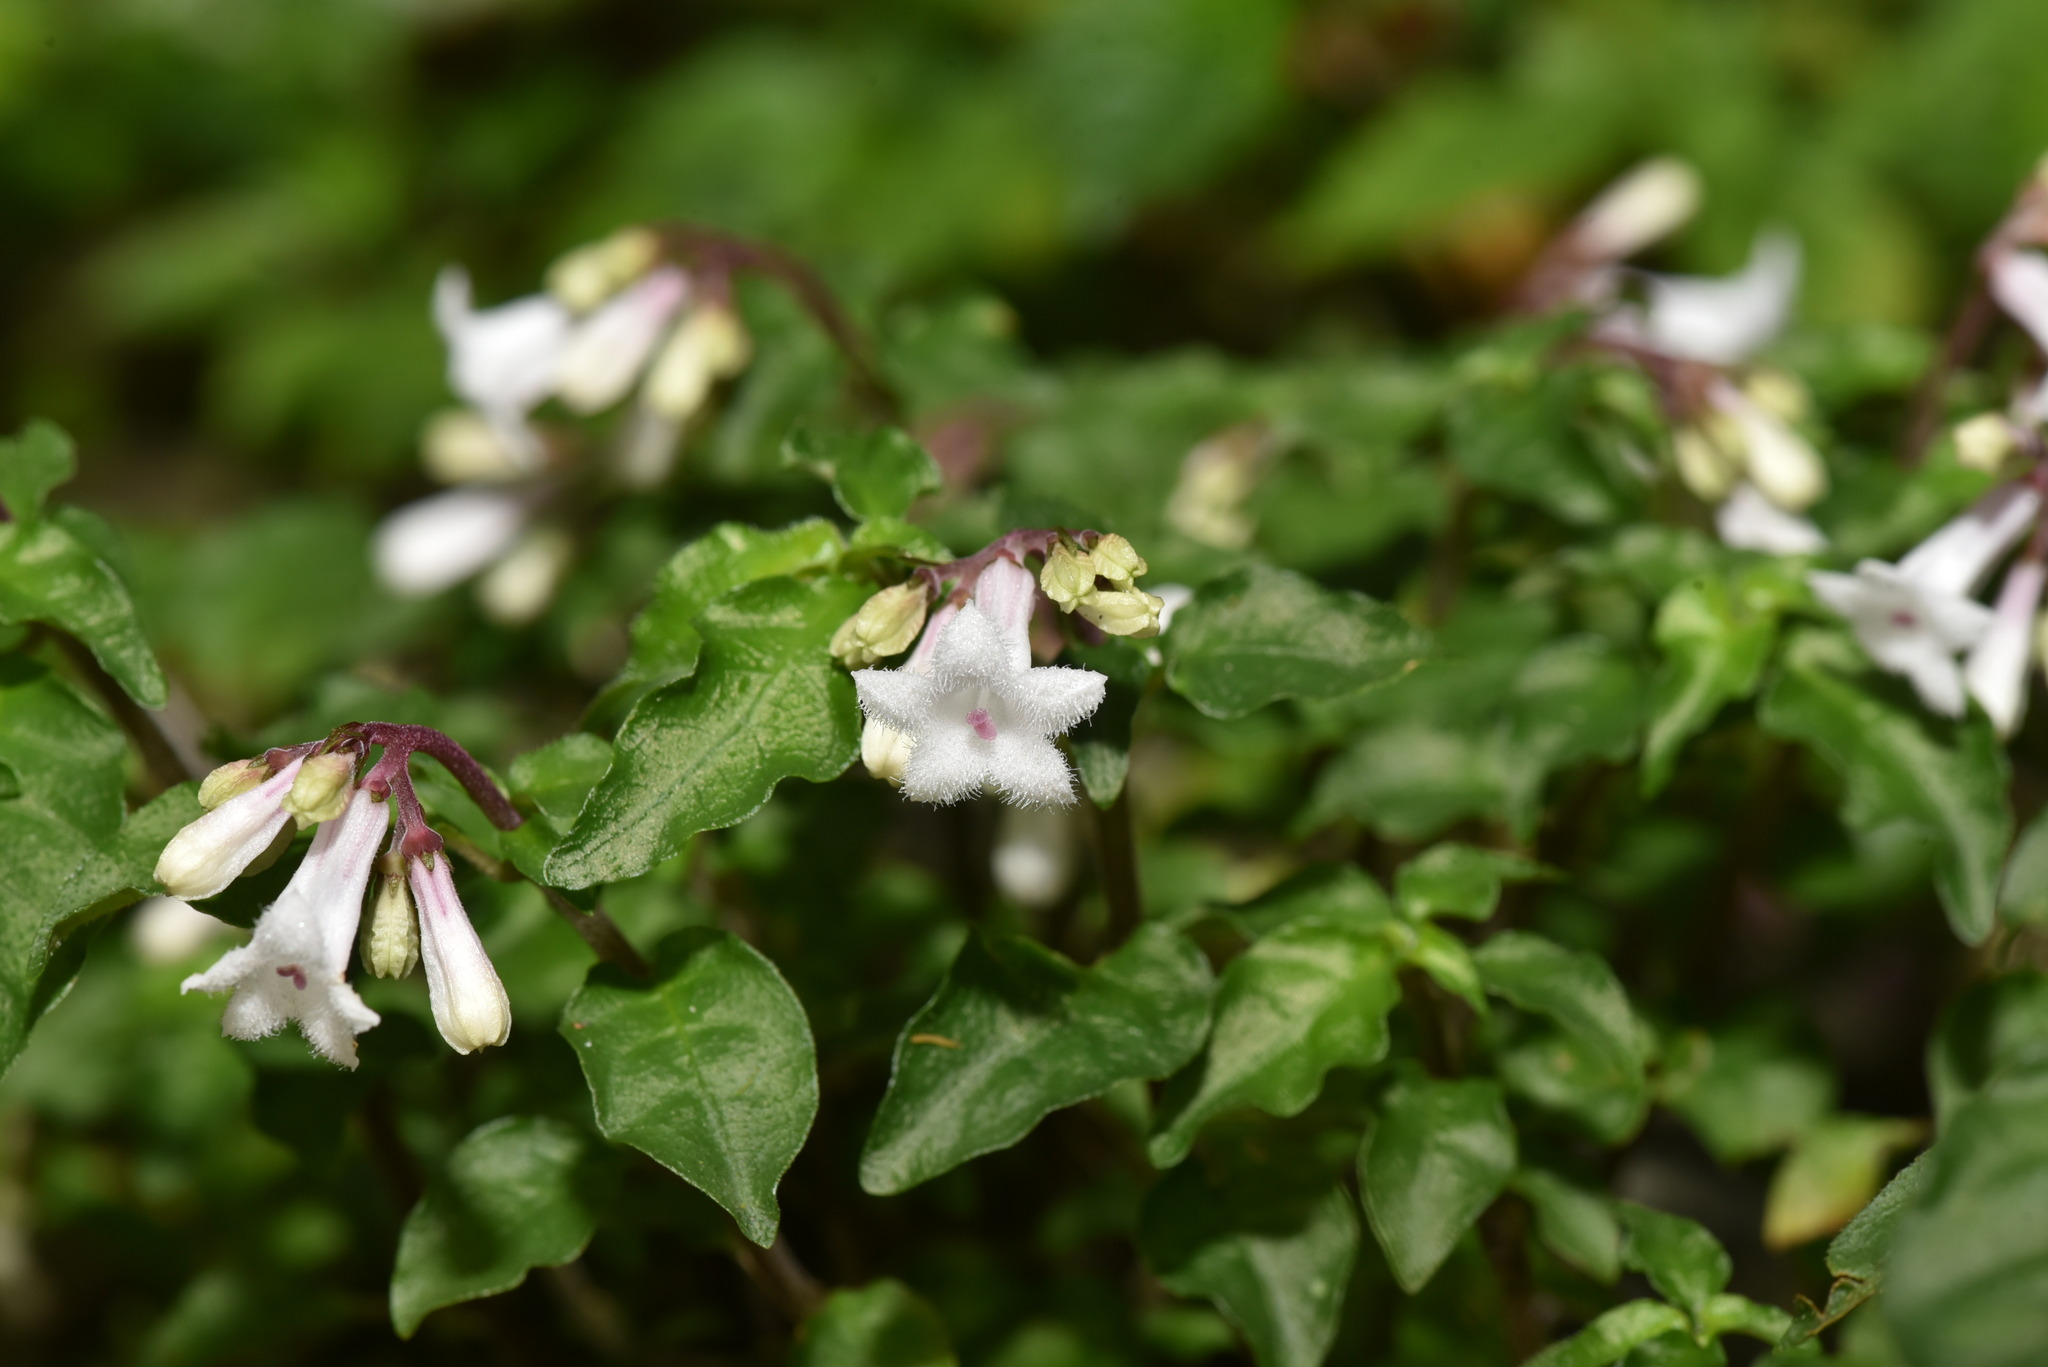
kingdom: Plantae
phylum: Tracheophyta
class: Magnoliopsida
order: Gentianales
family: Rubiaceae
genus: Ophiorrhiza
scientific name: Ophiorrhiza japonica
